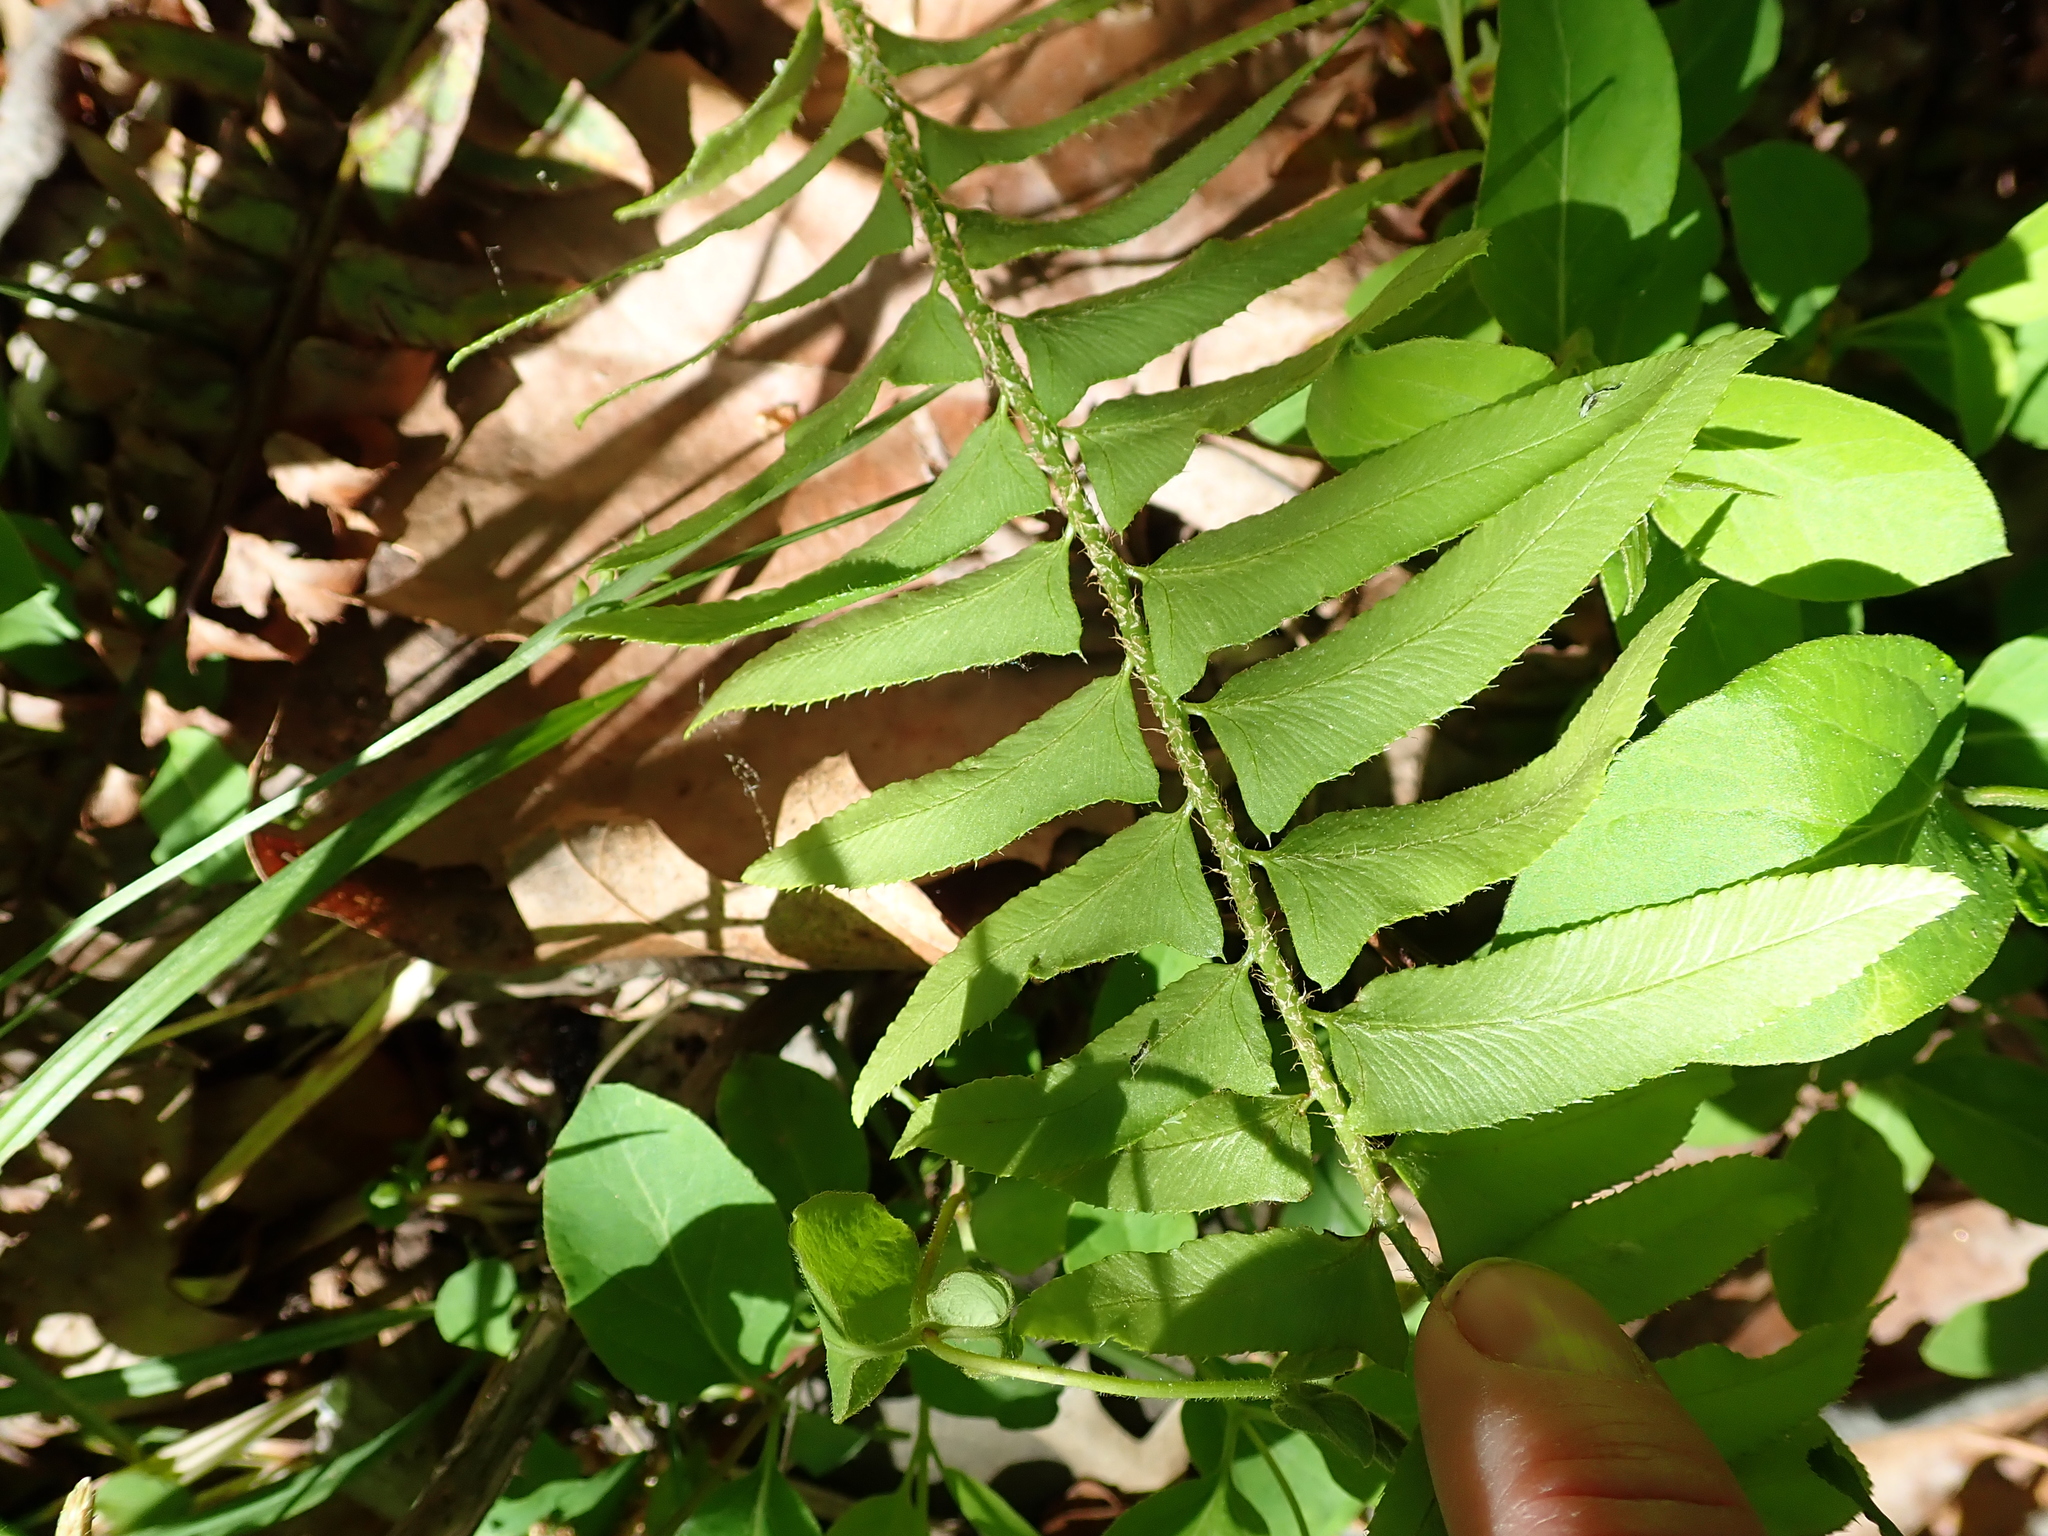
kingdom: Plantae
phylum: Tracheophyta
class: Polypodiopsida
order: Polypodiales
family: Dryopteridaceae
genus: Polystichum
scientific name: Polystichum acrostichoides
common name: Christmas fern
